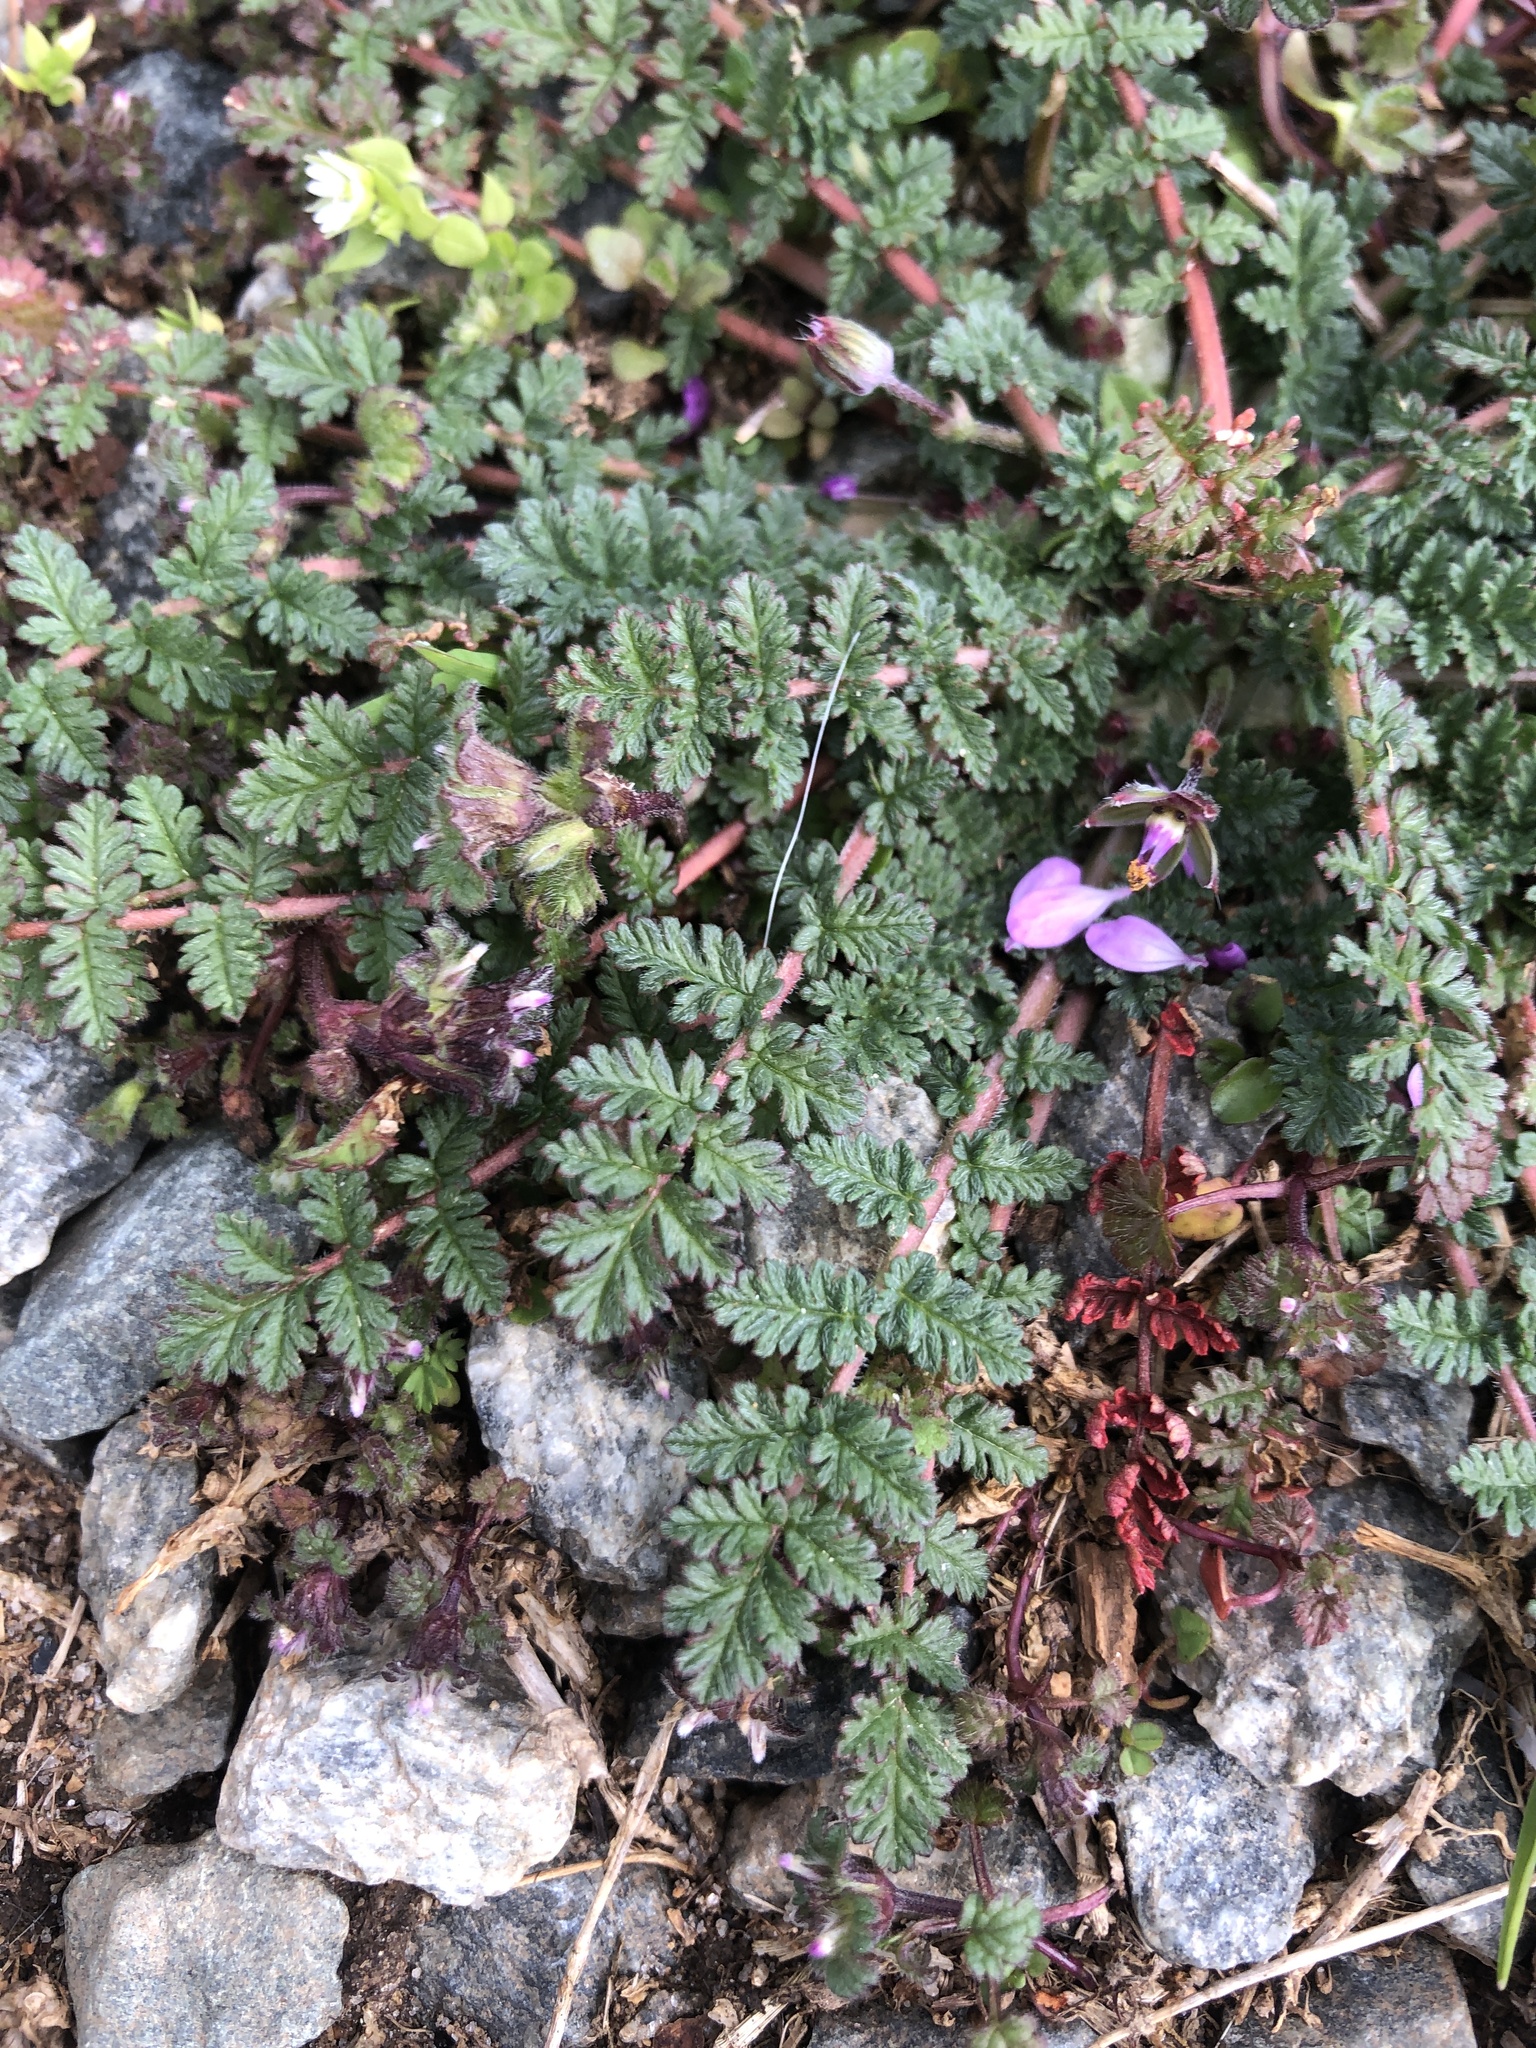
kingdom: Plantae
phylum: Tracheophyta
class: Magnoliopsida
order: Geraniales
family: Geraniaceae
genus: Erodium
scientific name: Erodium cicutarium
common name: Common stork's-bill
